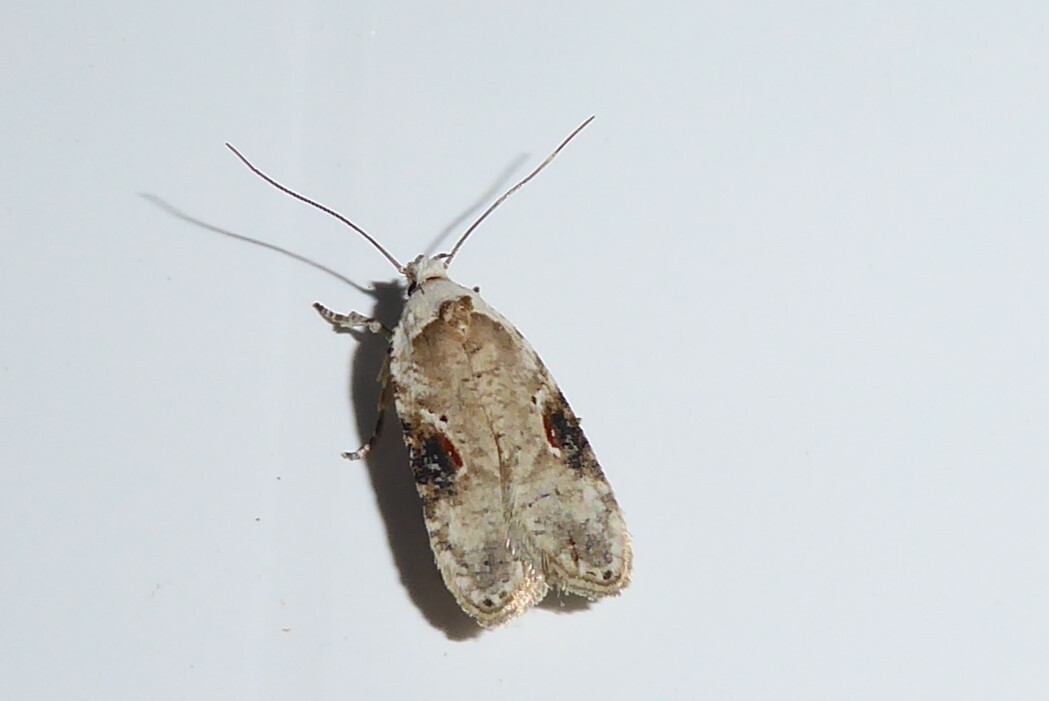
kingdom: Animalia
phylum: Arthropoda
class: Insecta
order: Lepidoptera
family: Depressariidae
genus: Agonopterix
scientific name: Agonopterix alstroemeriana
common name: Moth
